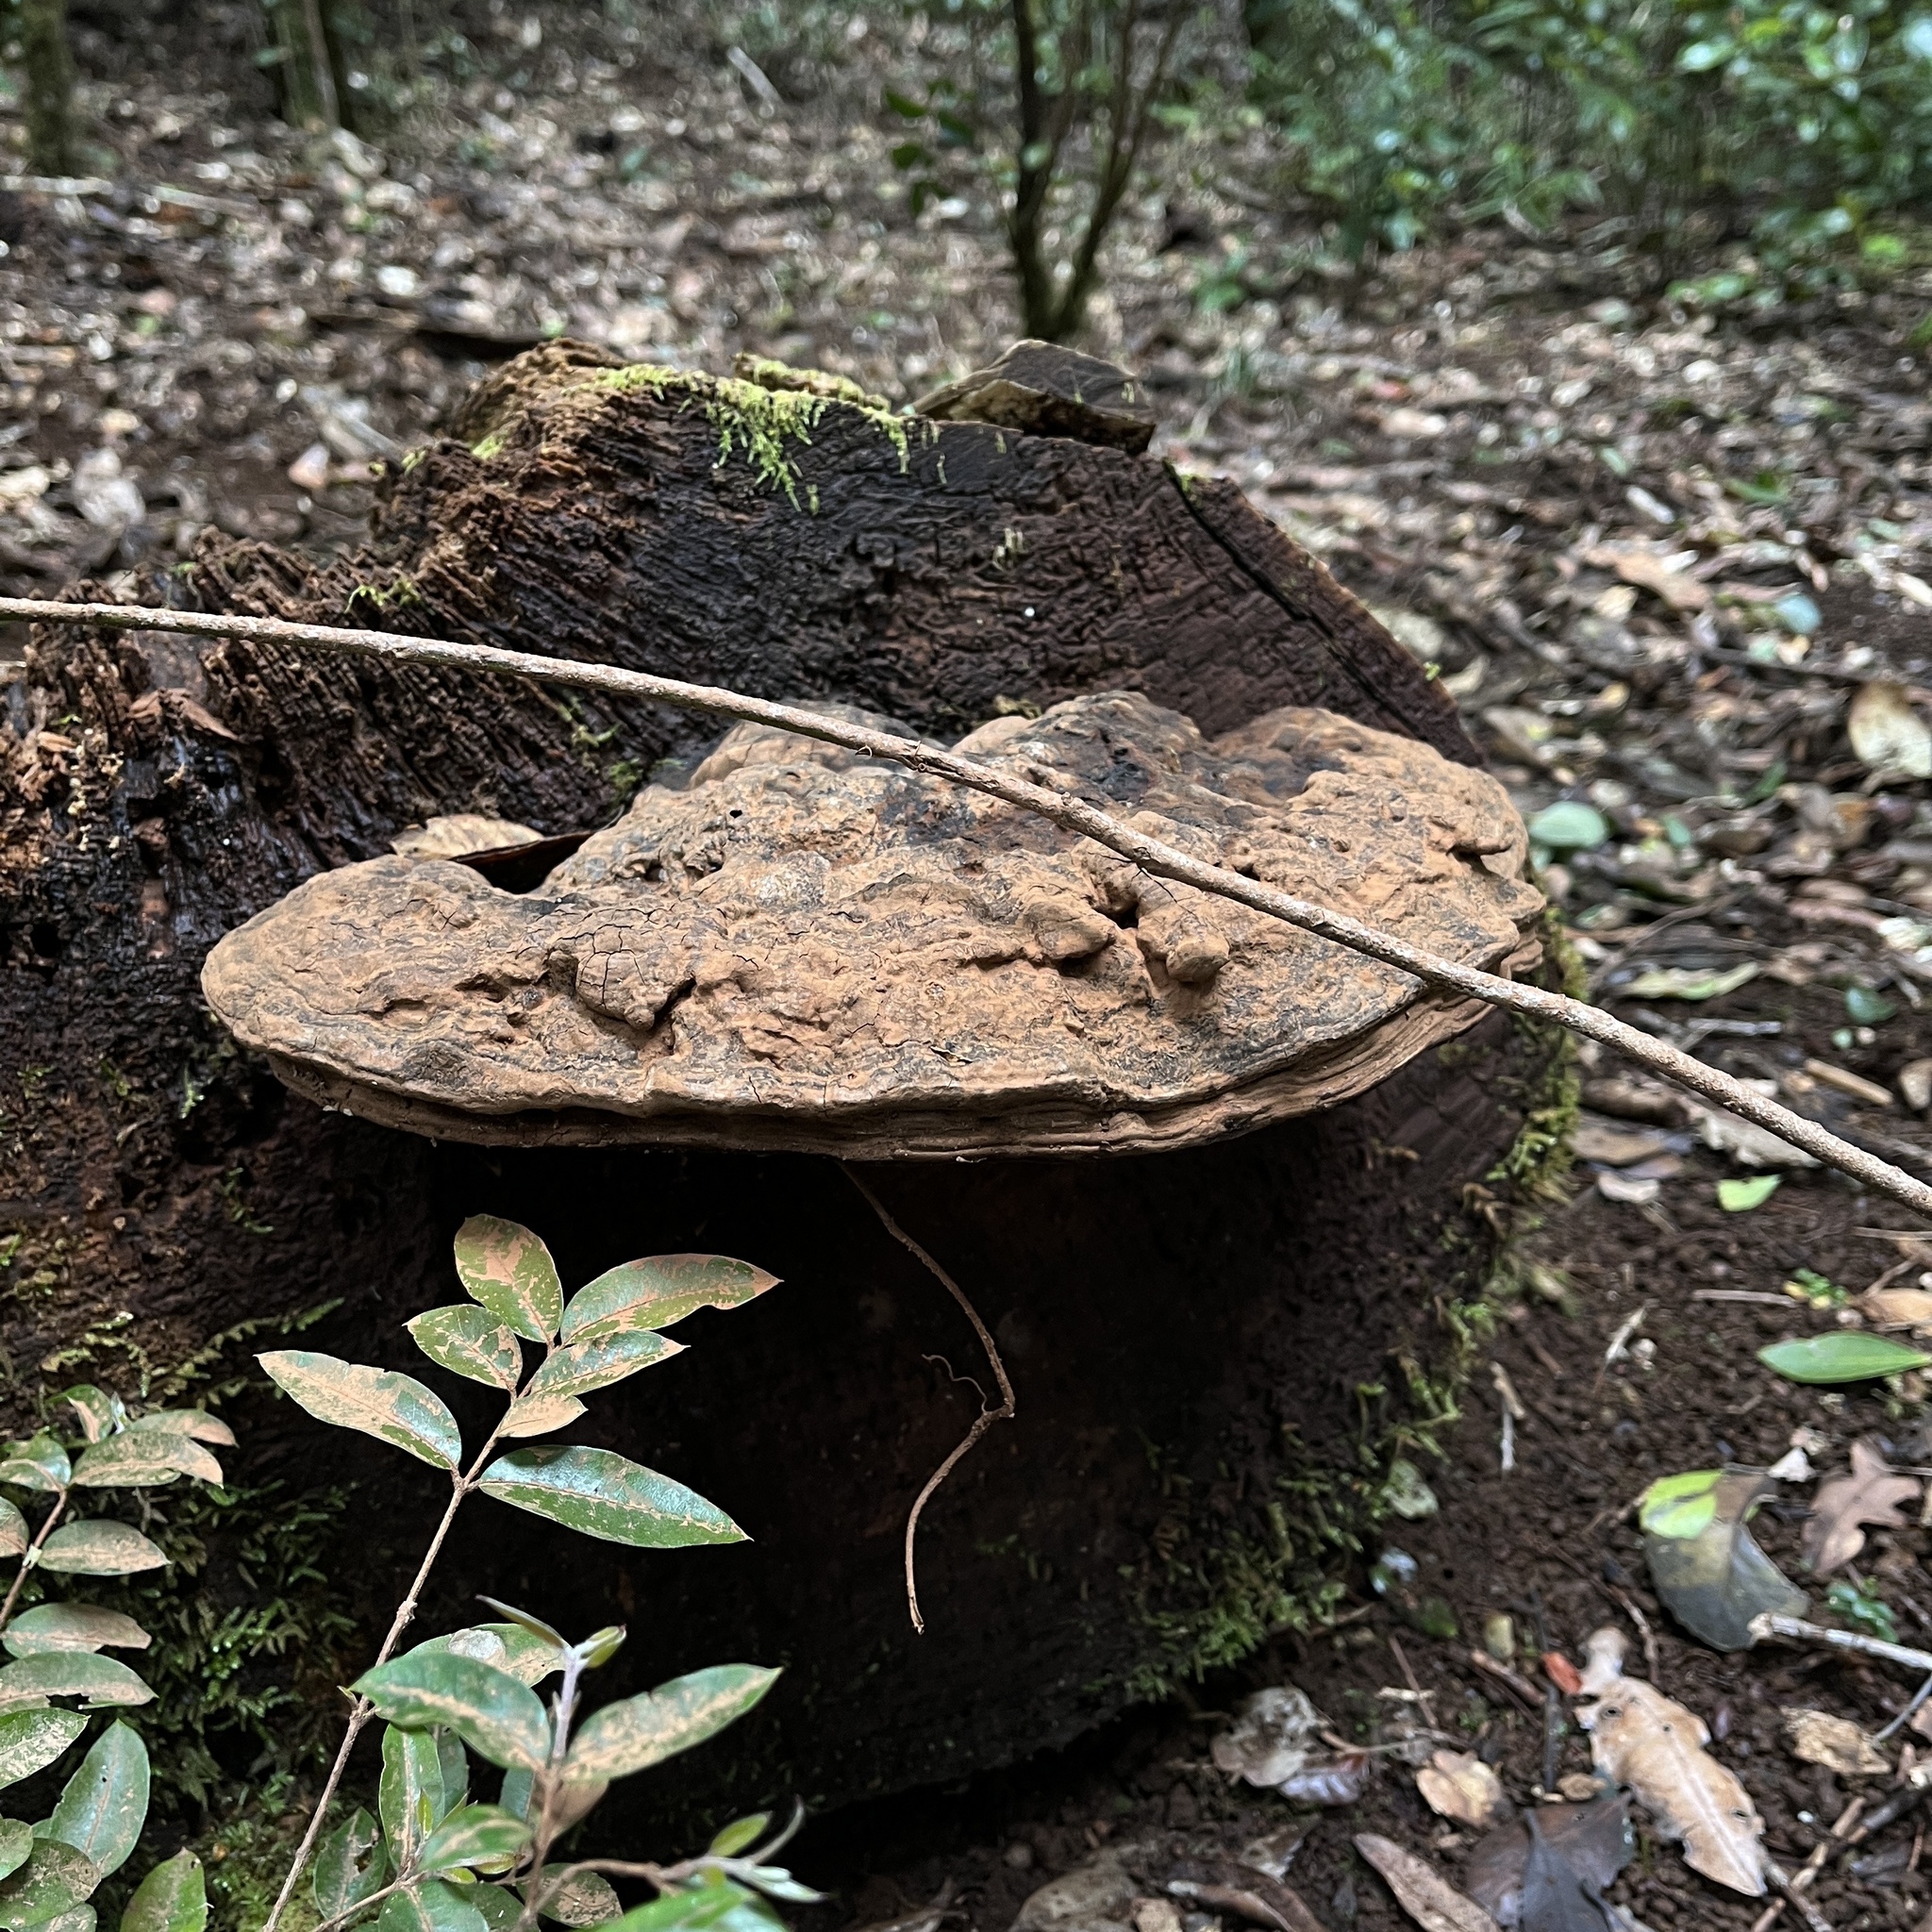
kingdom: Fungi
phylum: Basidiomycota
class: Agaricomycetes
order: Polyporales
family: Polyporaceae
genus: Ganoderma
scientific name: Ganoderma australe
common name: Southern bracket
